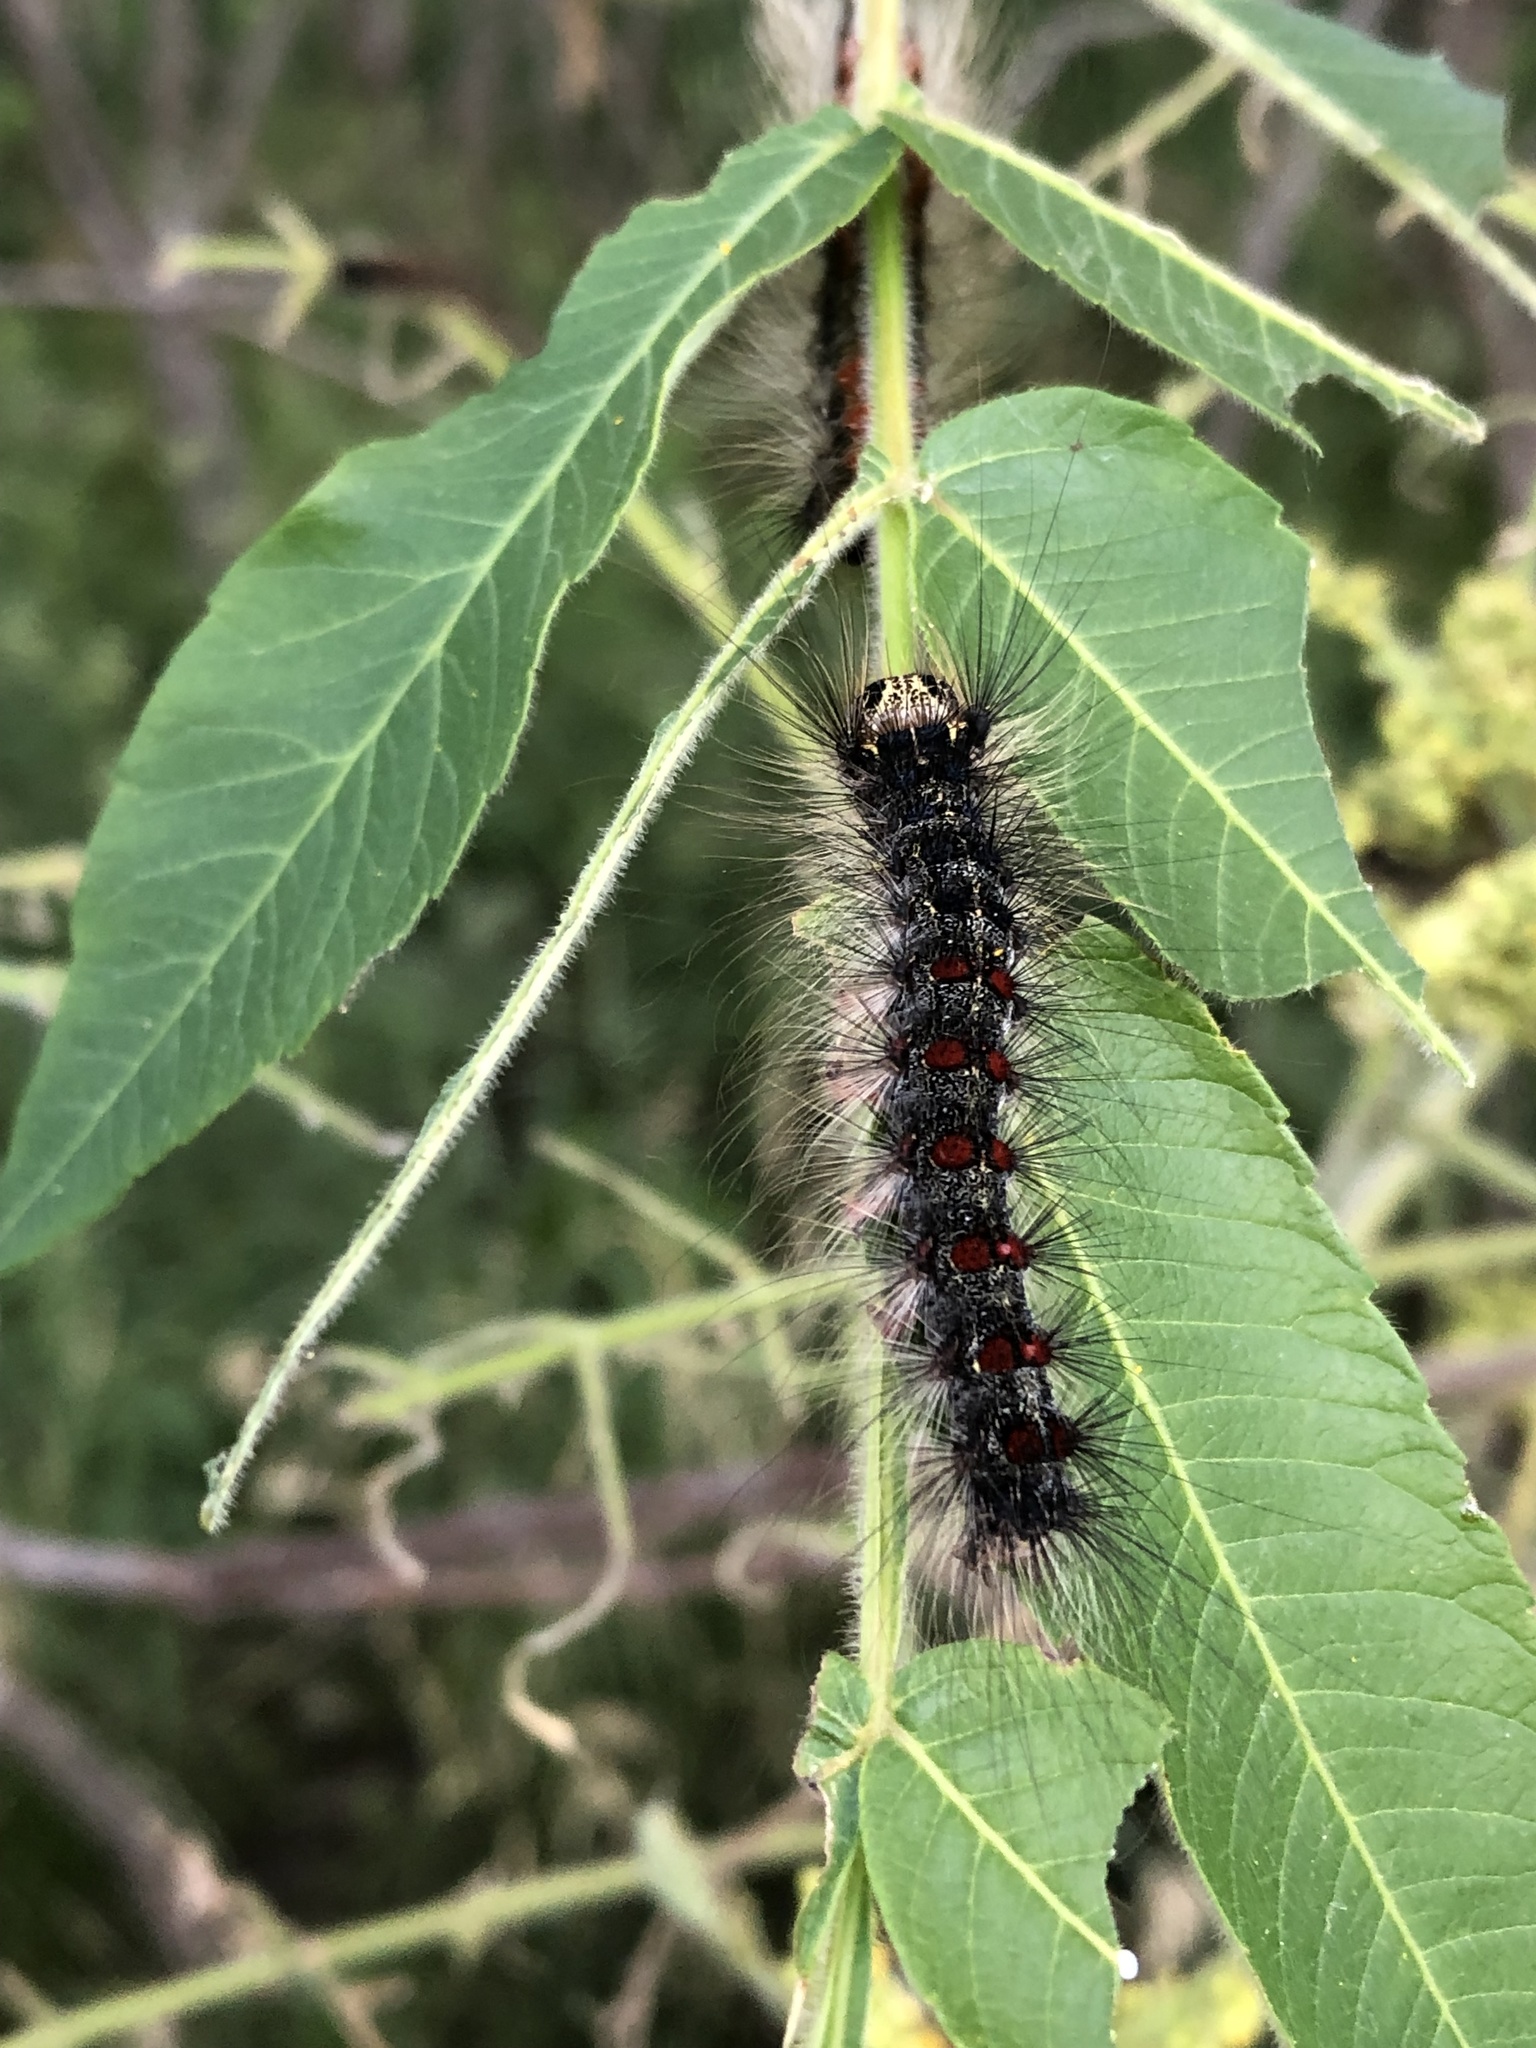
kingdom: Animalia
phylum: Arthropoda
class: Insecta
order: Lepidoptera
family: Erebidae
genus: Lymantria
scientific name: Lymantria dispar
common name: Gypsy moth
